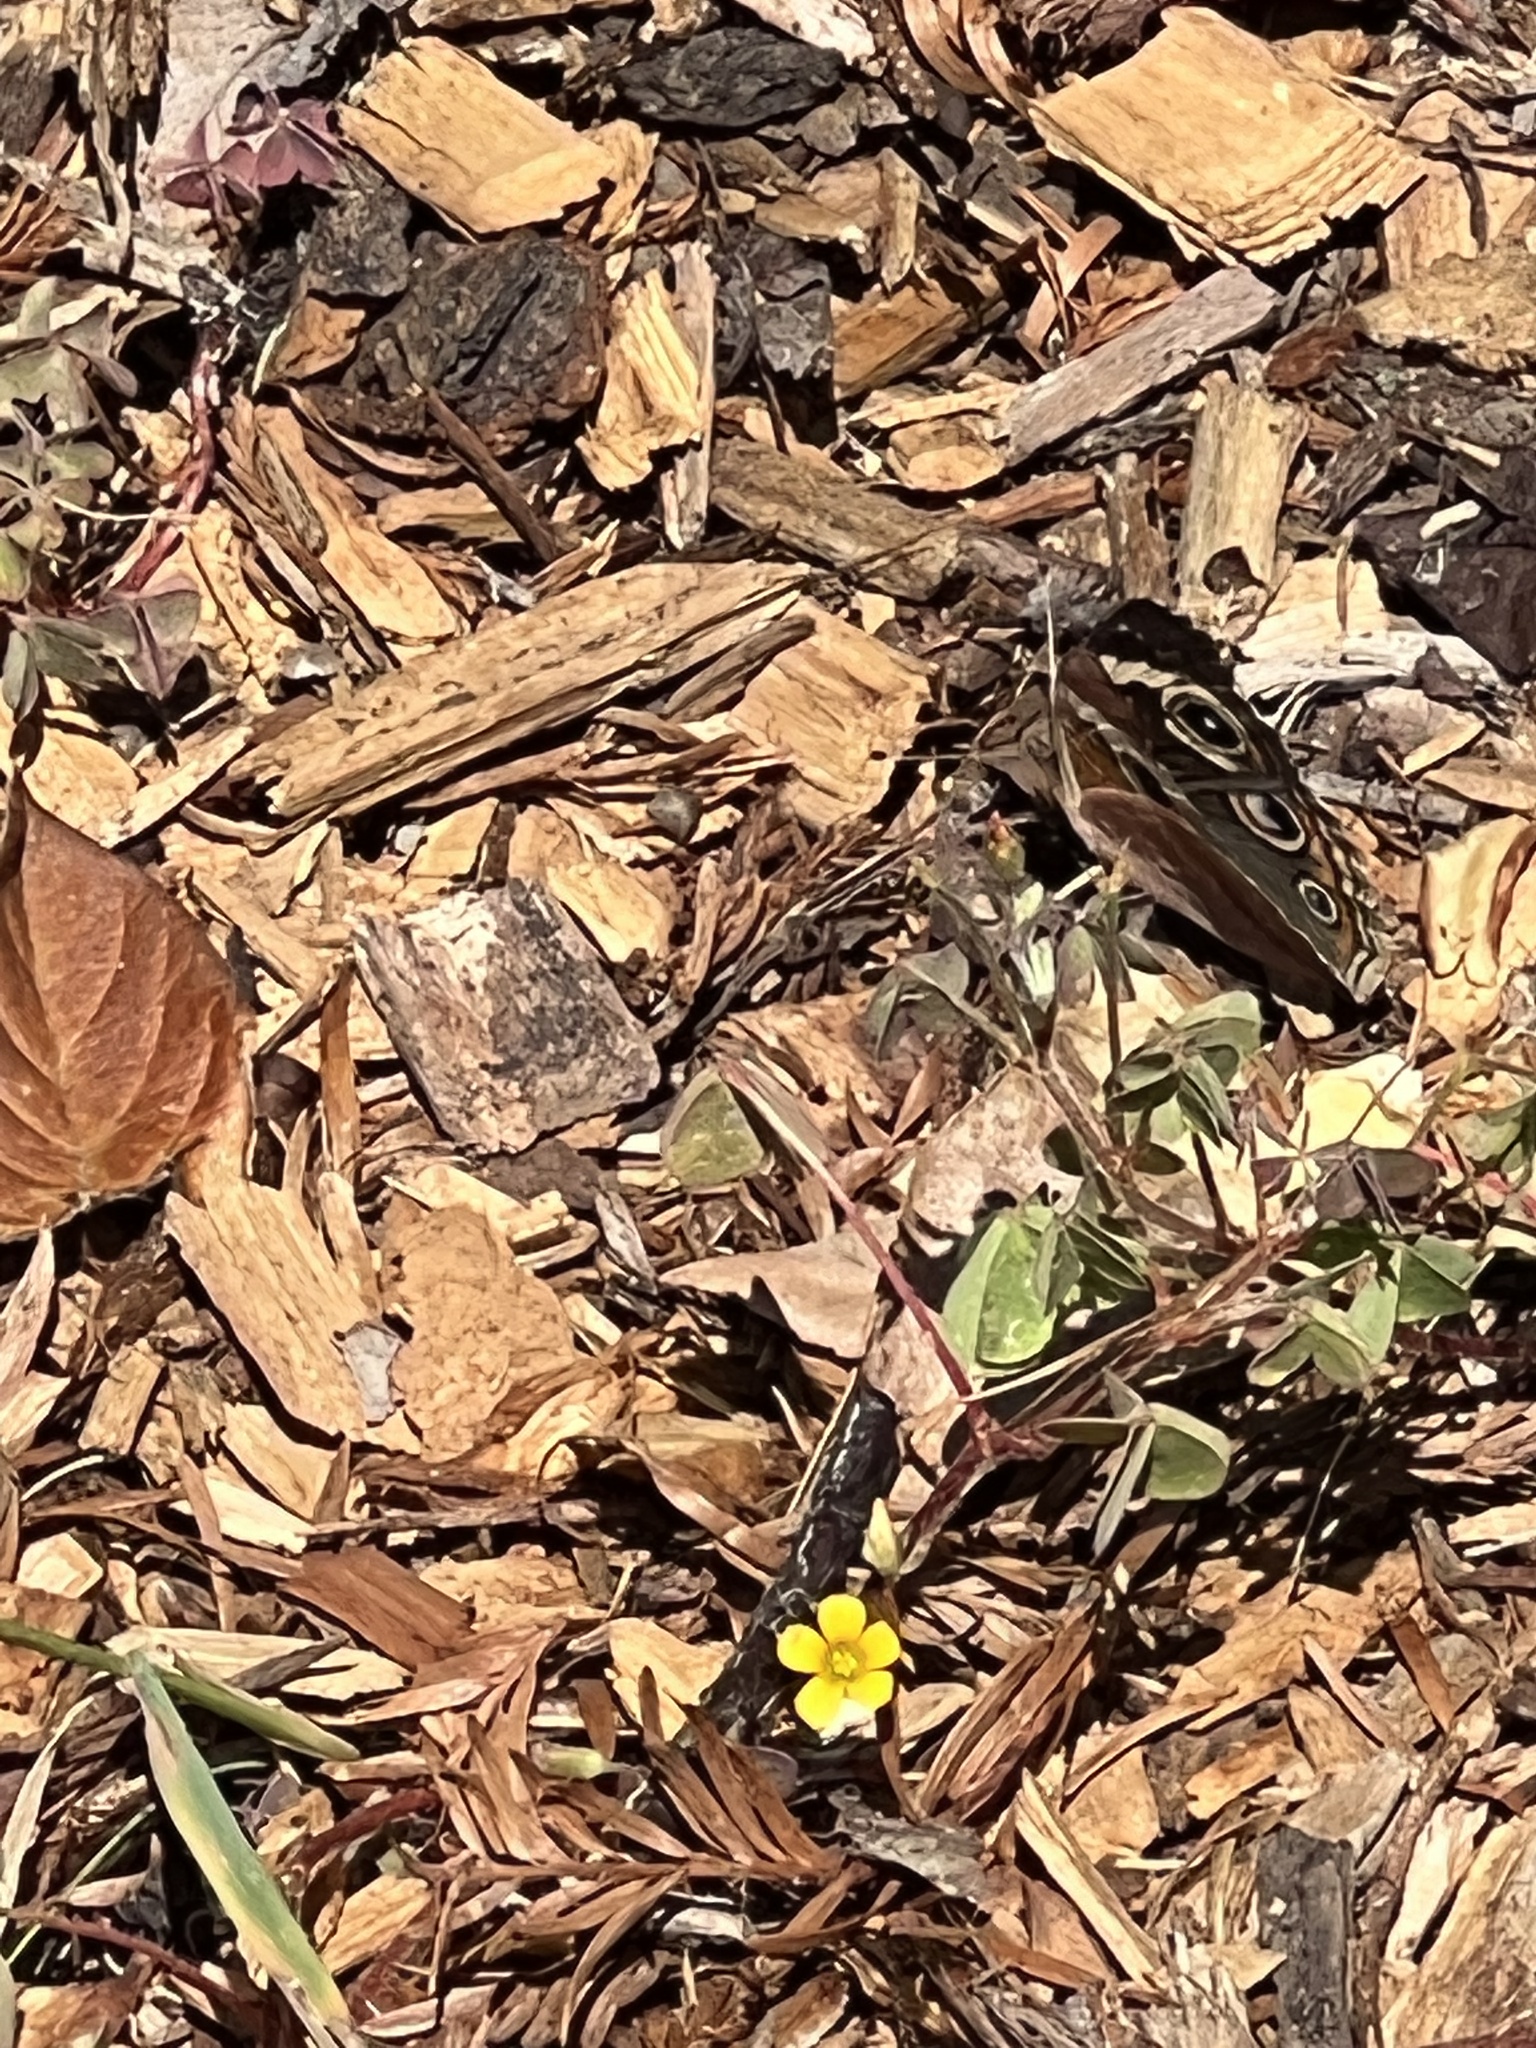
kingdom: Animalia
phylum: Arthropoda
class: Insecta
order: Lepidoptera
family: Nymphalidae
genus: Junonia
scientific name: Junonia grisea
